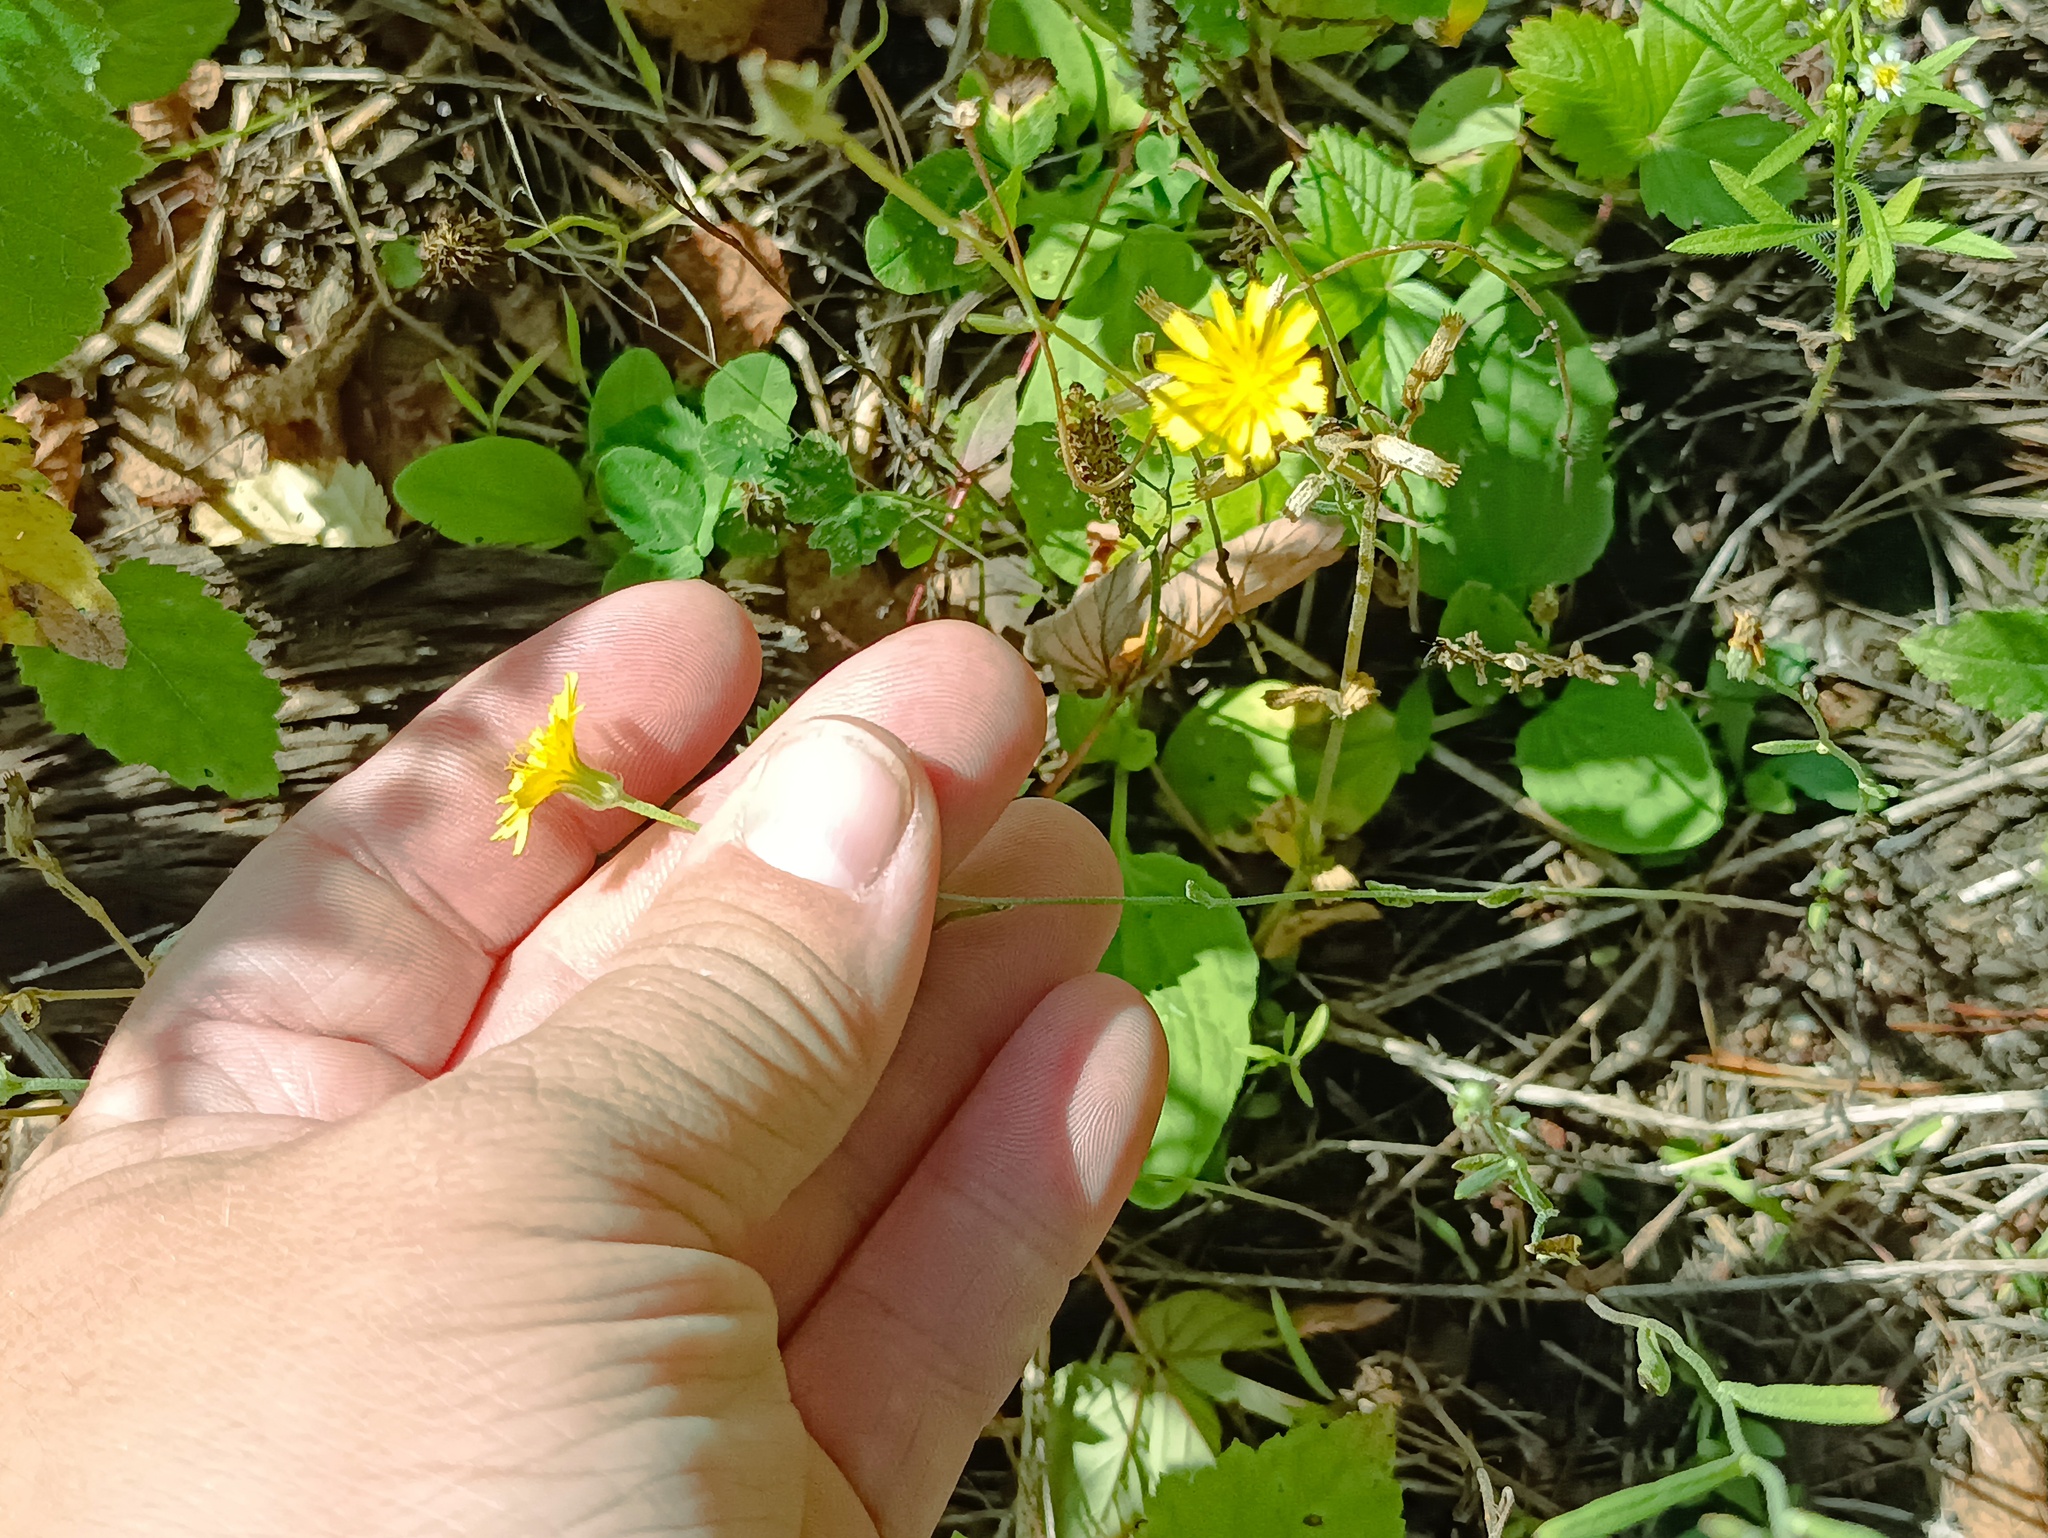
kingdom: Plantae
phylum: Tracheophyta
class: Magnoliopsida
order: Asterales
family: Asteraceae
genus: Crepis
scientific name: Crepis tectorum
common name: Narrow-leaved hawk's-beard
